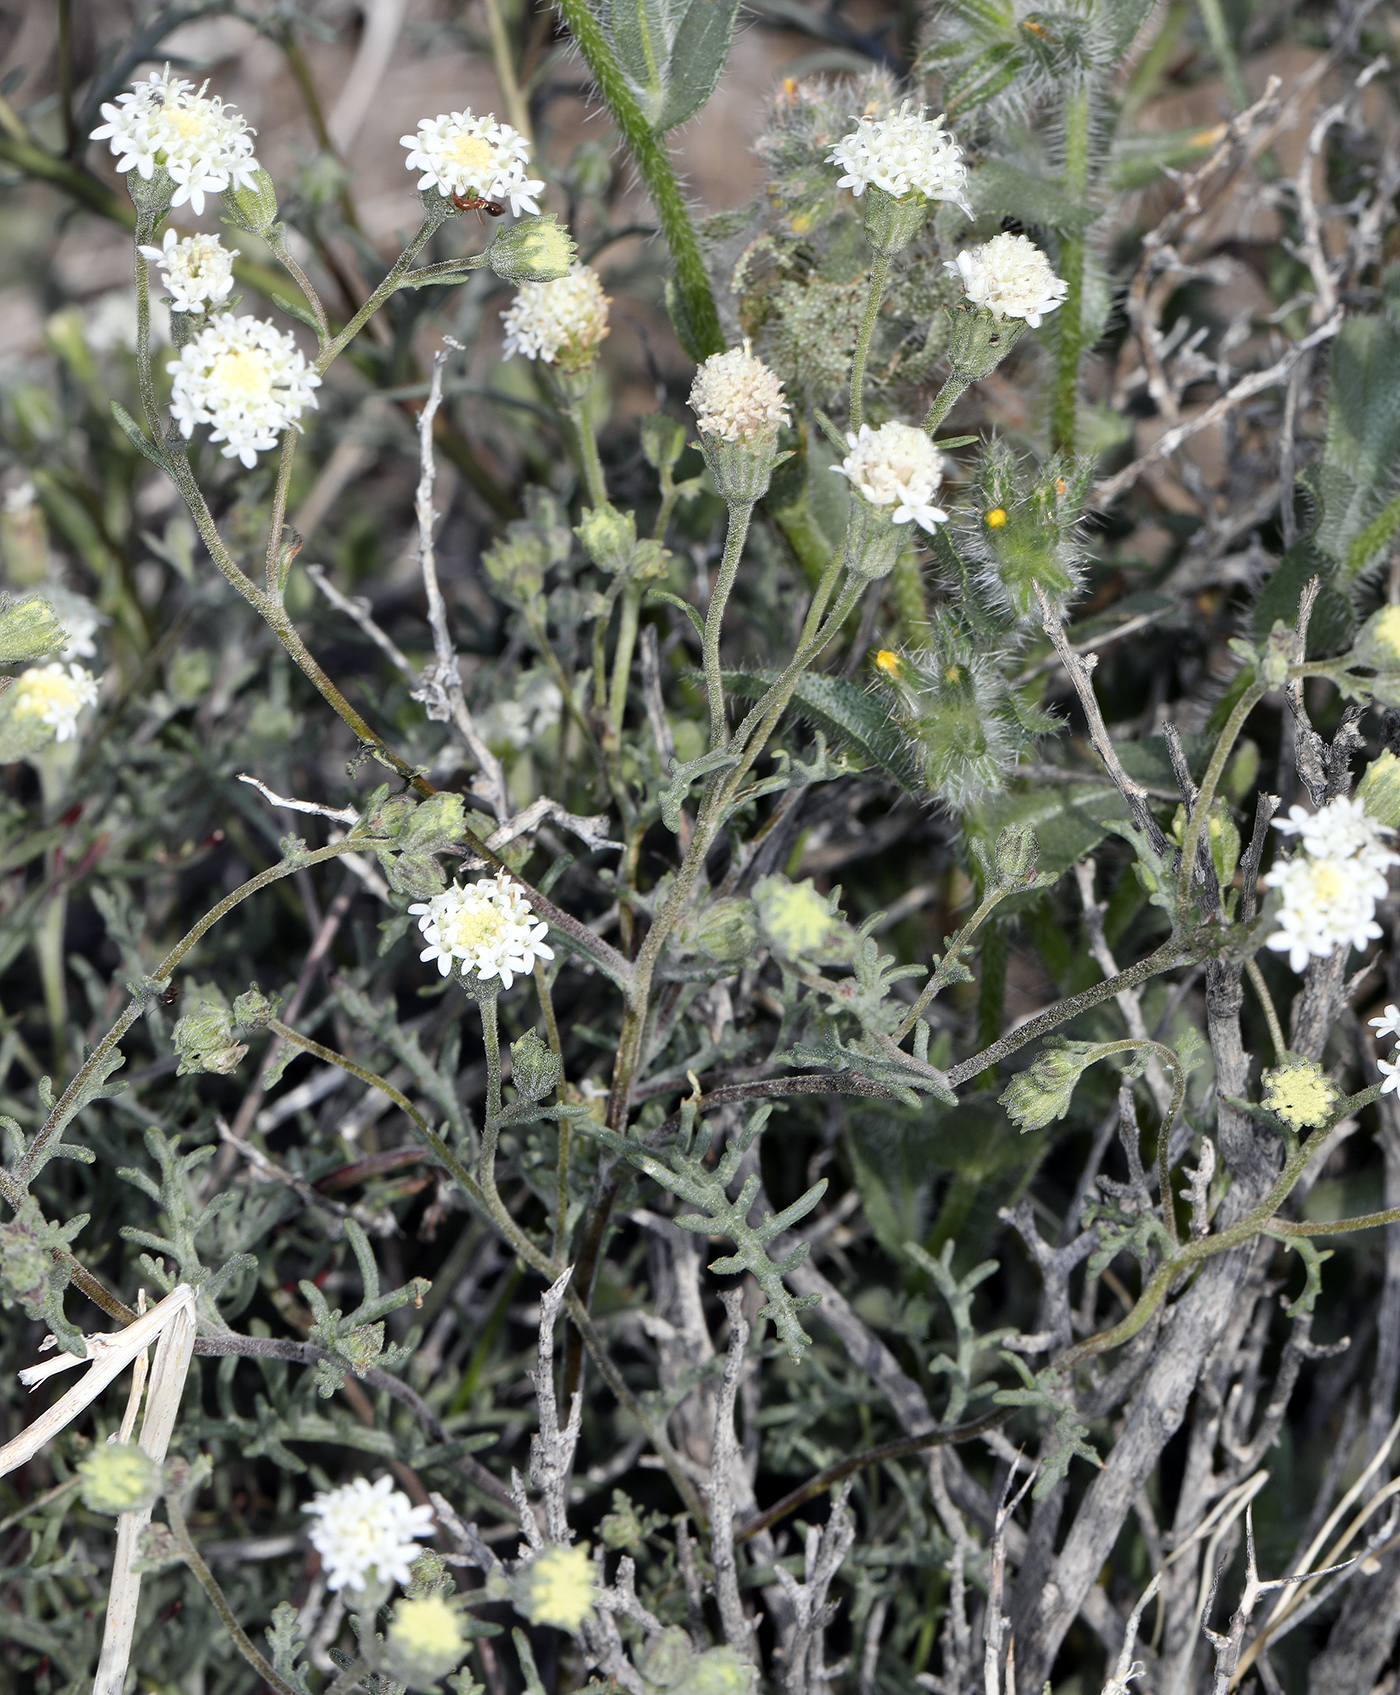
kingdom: Plantae
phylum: Tracheophyta
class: Magnoliopsida
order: Asterales
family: Asteraceae
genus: Chaenactis
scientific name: Chaenactis stevioides
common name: Desert pincushion
